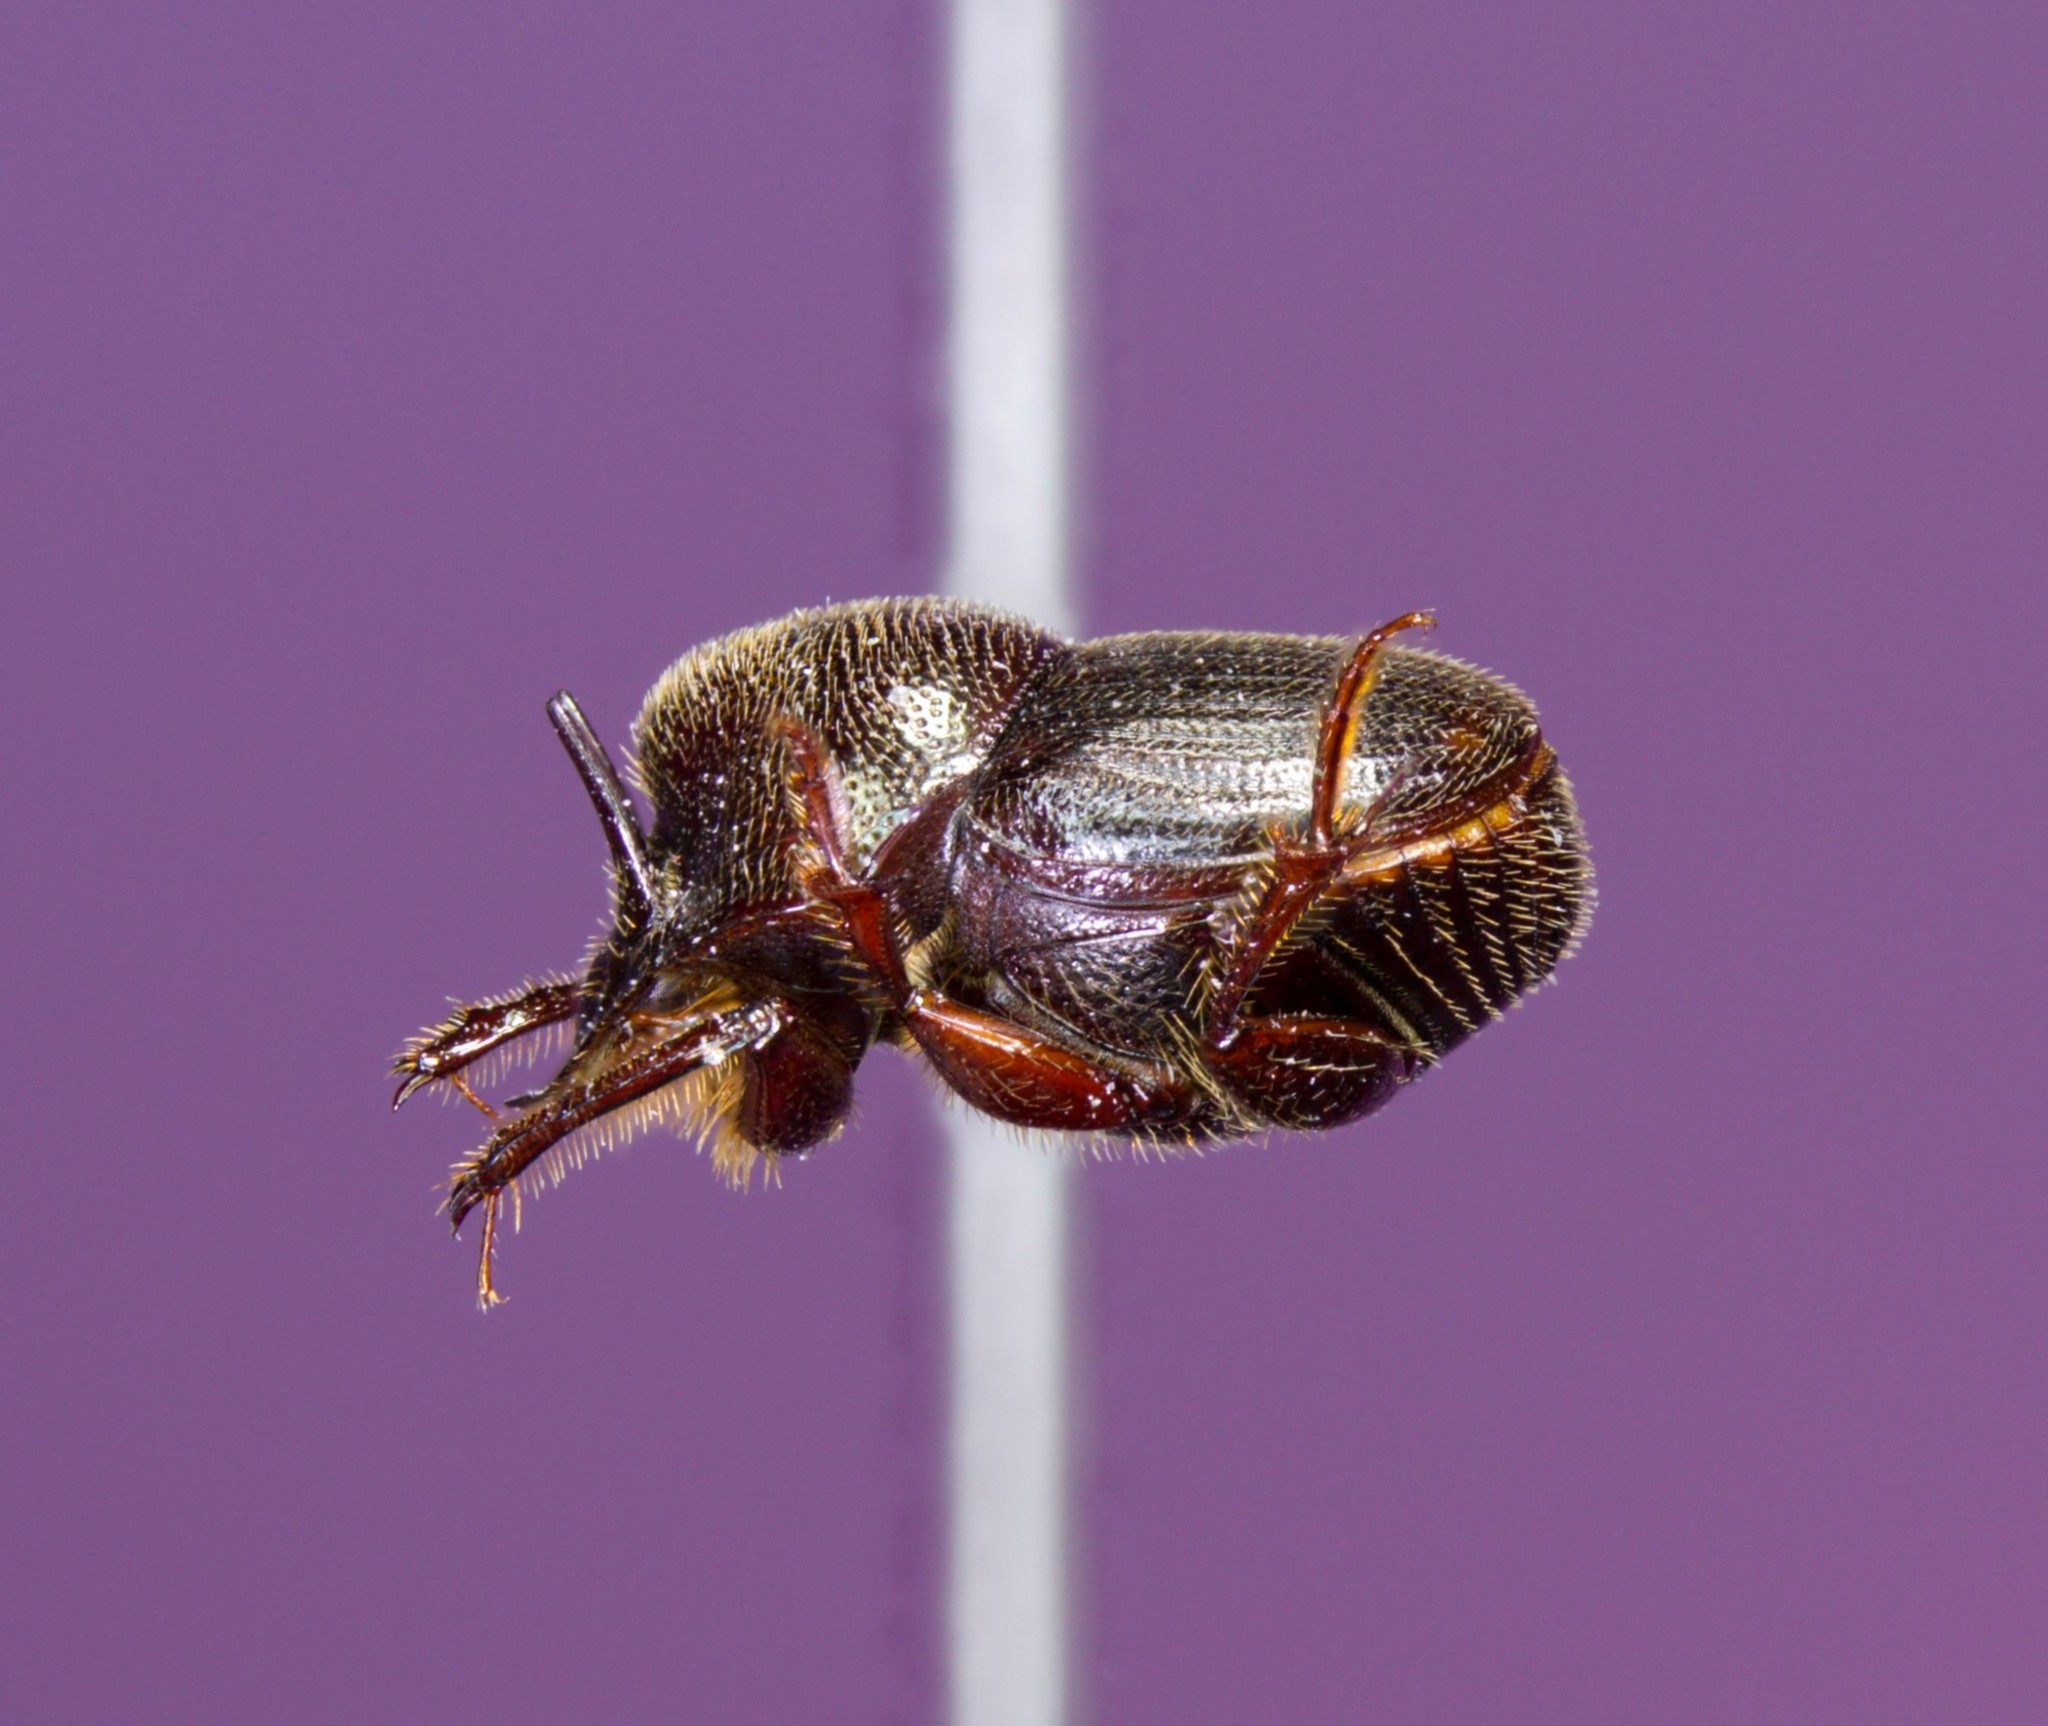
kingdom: Animalia
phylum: Arthropoda
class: Insecta
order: Coleoptera
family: Scarabaeidae
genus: Onthophagus
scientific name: Onthophagus striatulus
